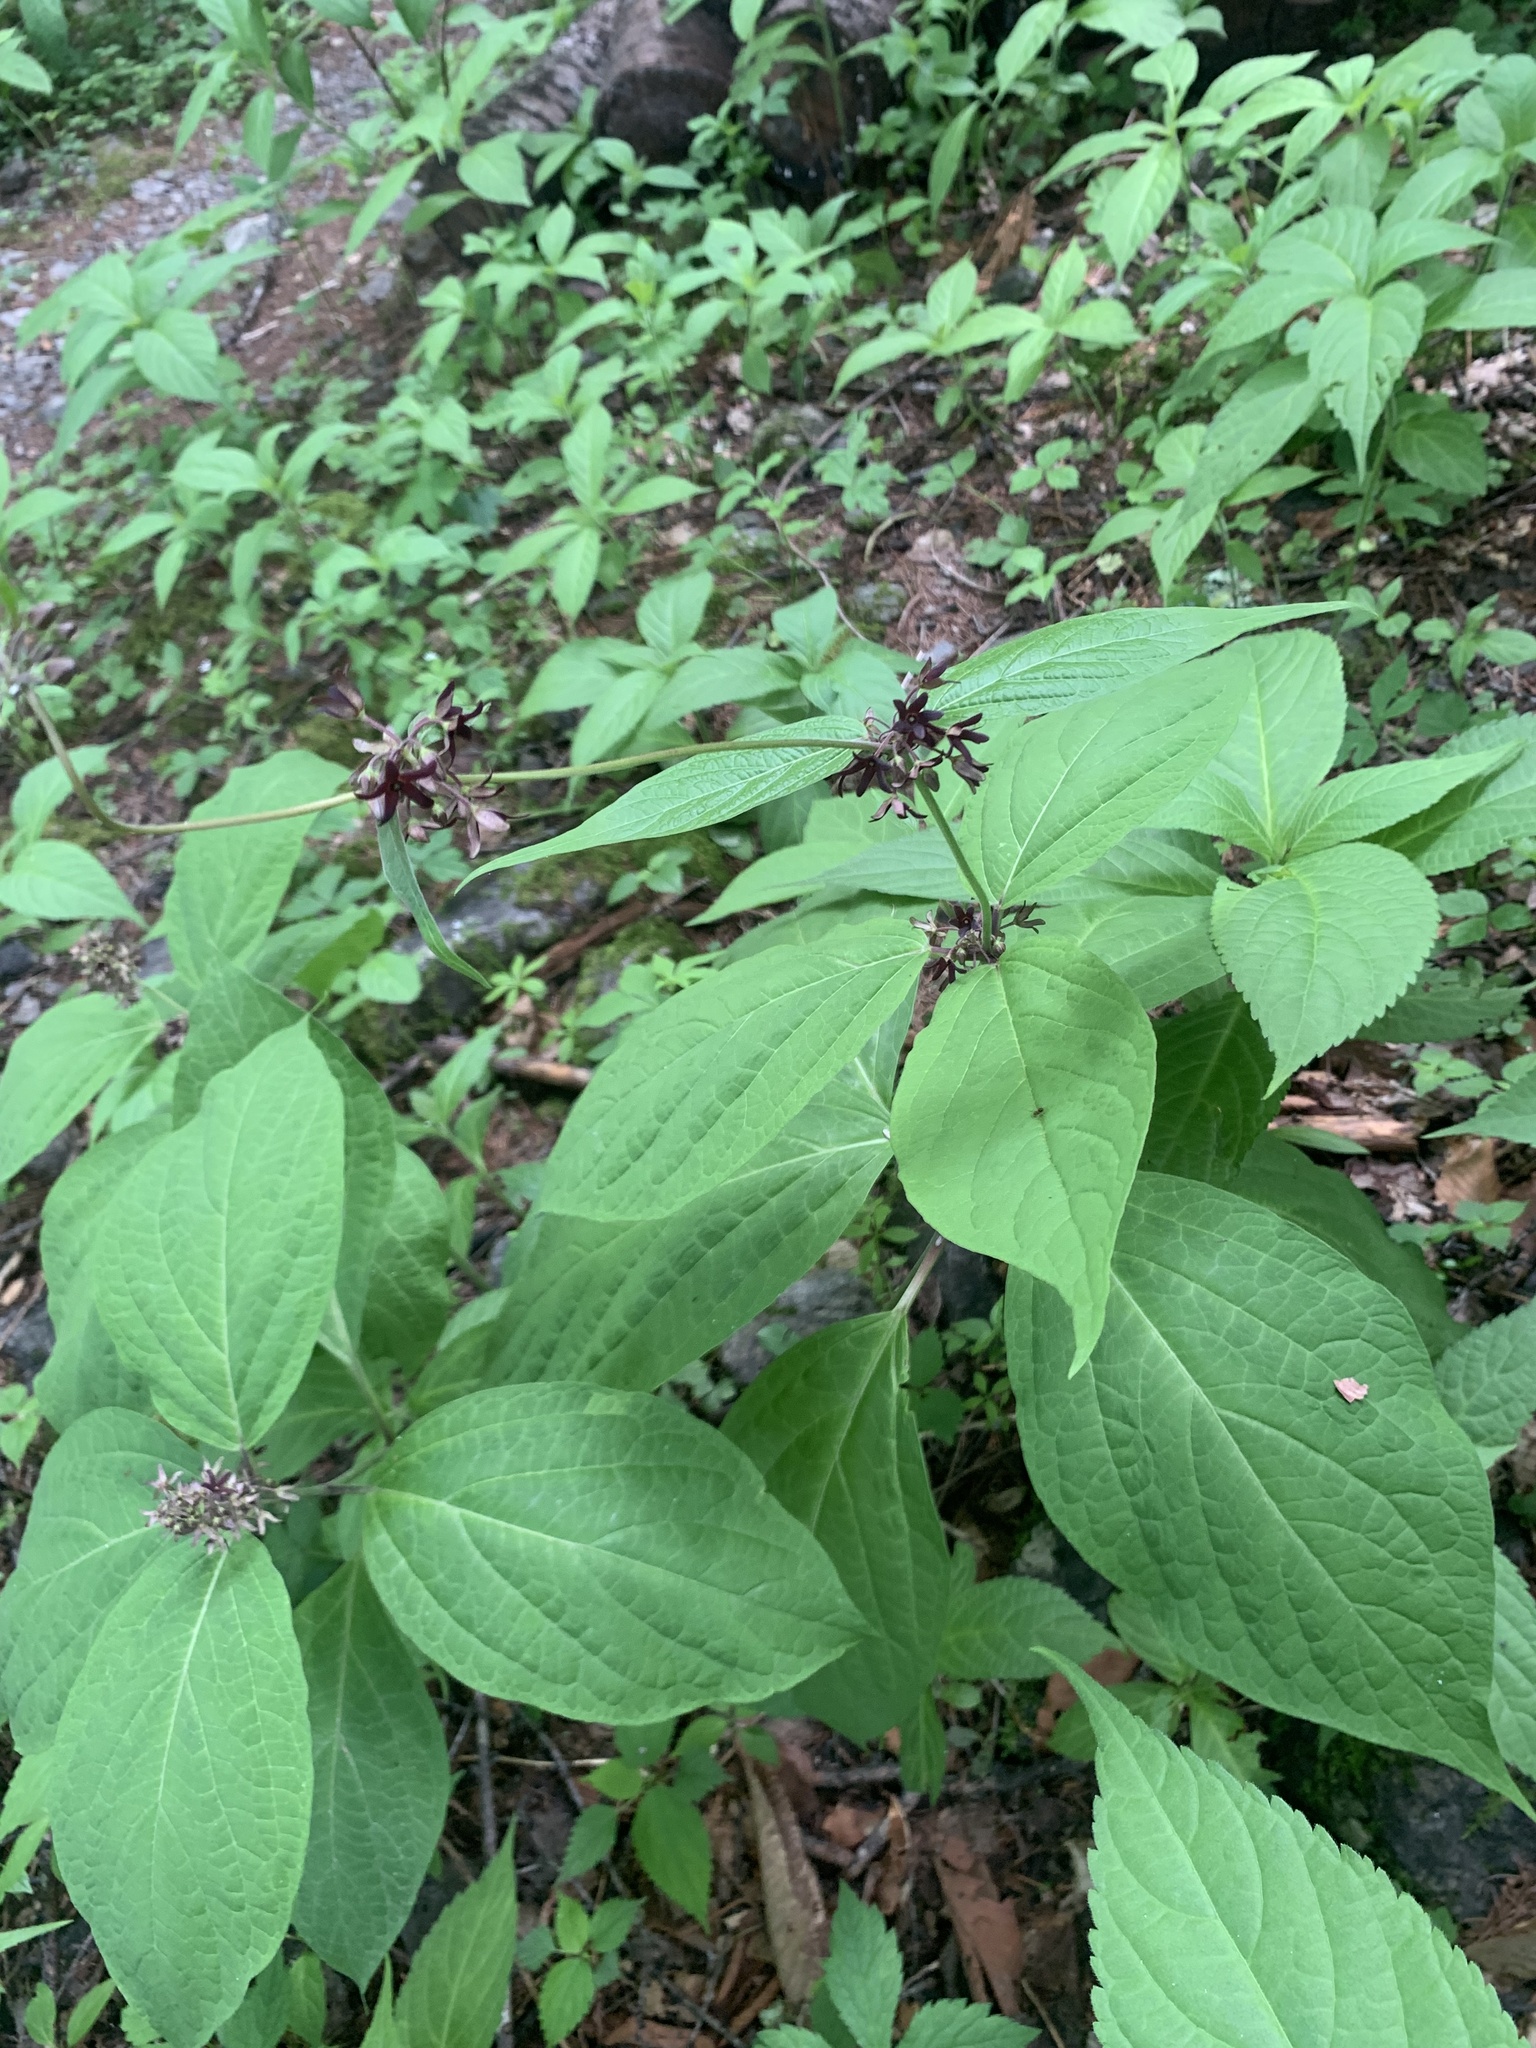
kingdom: Plantae
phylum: Tracheophyta
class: Magnoliopsida
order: Gentianales
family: Apocynaceae
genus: Vincetoxicum
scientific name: Vincetoxicum macrophyllum
